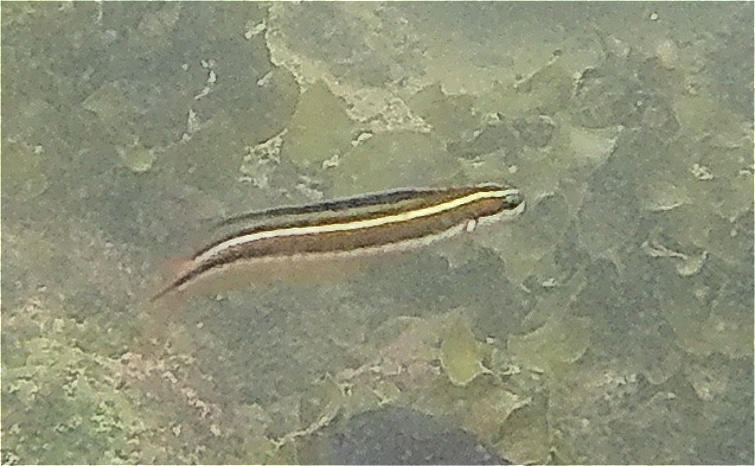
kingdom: Animalia
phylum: Chordata
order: Perciformes
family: Blenniidae
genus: Plagiotremus
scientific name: Plagiotremus azaleus
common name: Sabertooth blenny
